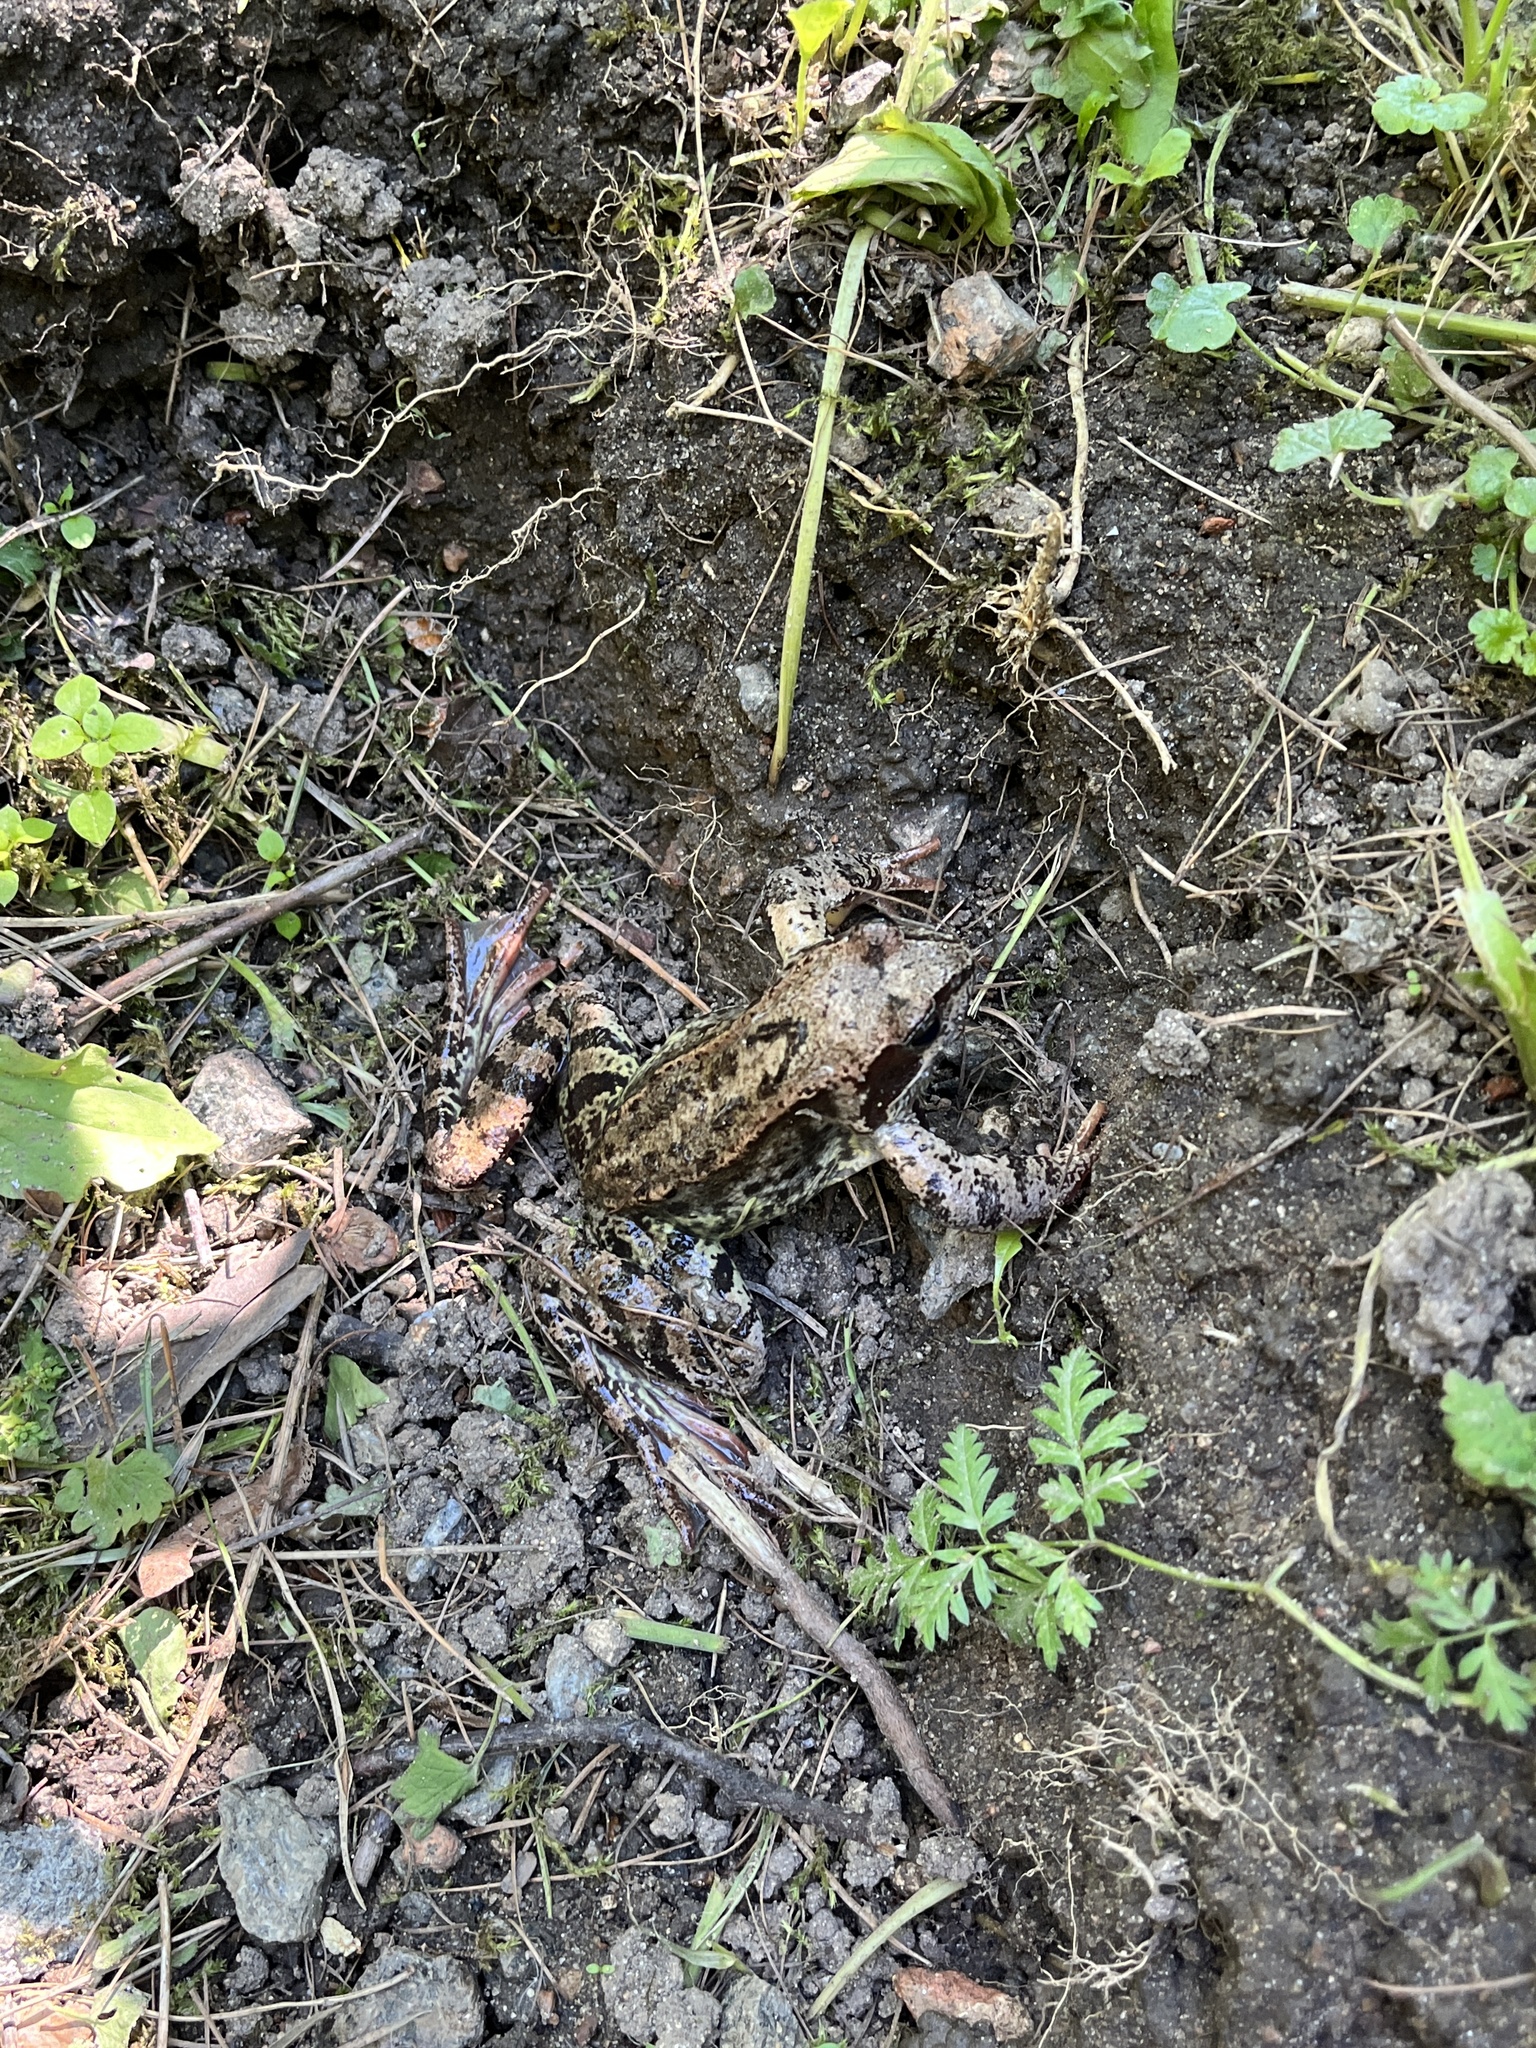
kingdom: Animalia
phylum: Chordata
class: Amphibia
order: Anura
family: Ranidae
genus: Rana
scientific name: Rana temporaria
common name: Common frog
